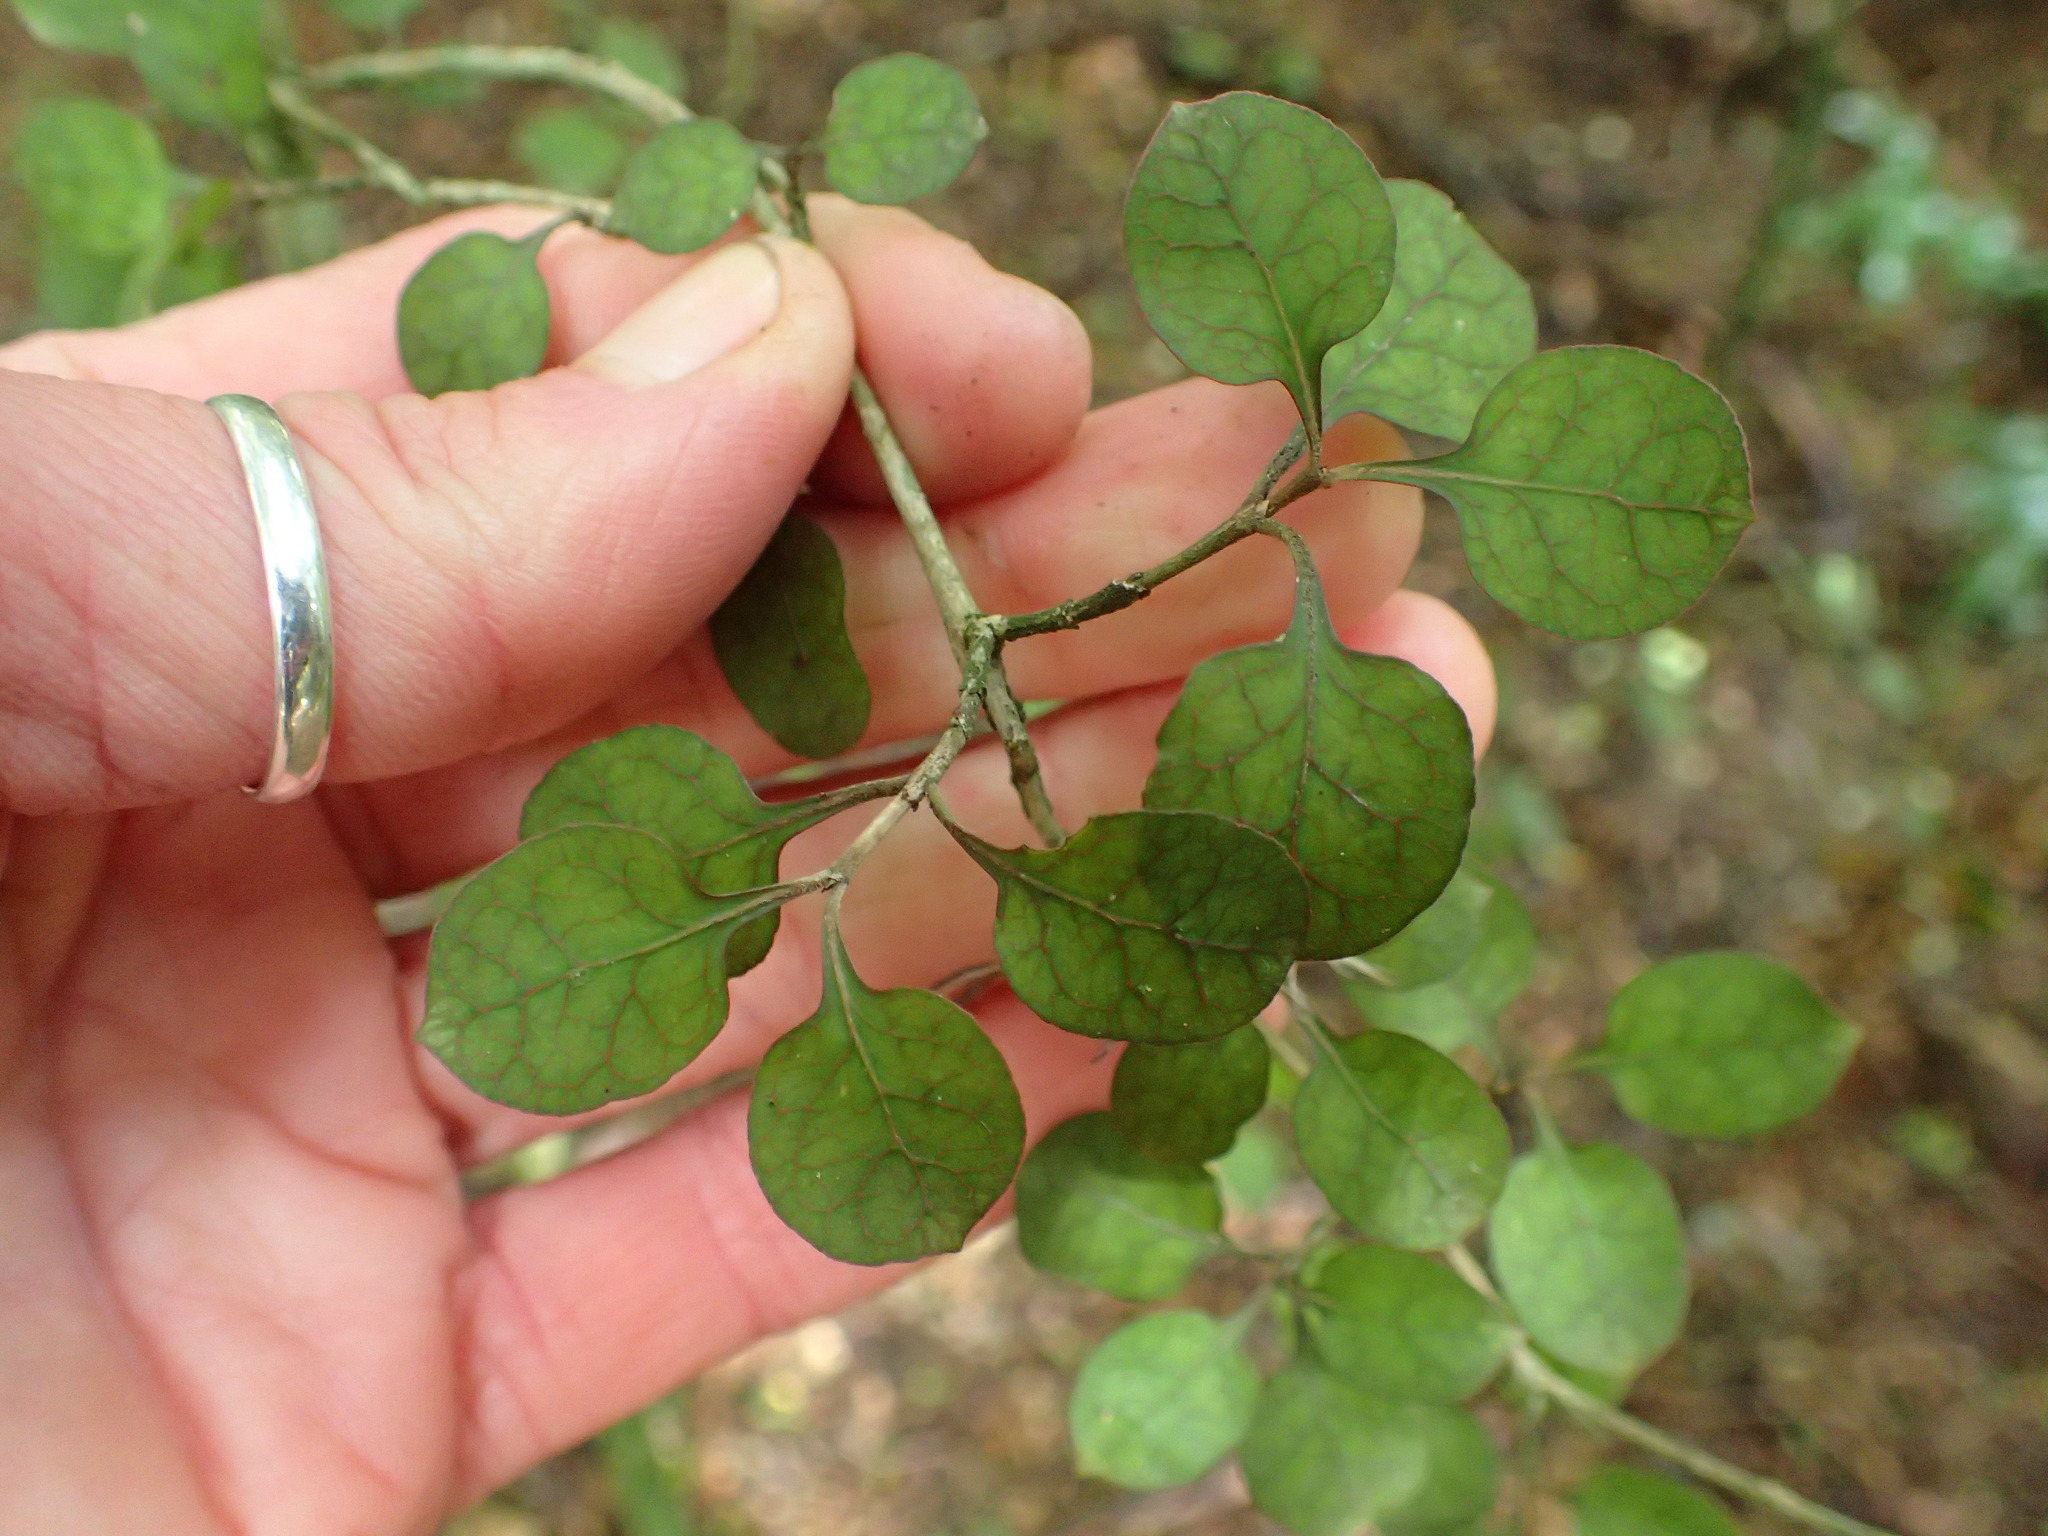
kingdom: Plantae
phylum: Tracheophyta
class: Magnoliopsida
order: Gentianales
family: Rubiaceae
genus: Coprosma
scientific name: Coprosma areolata
